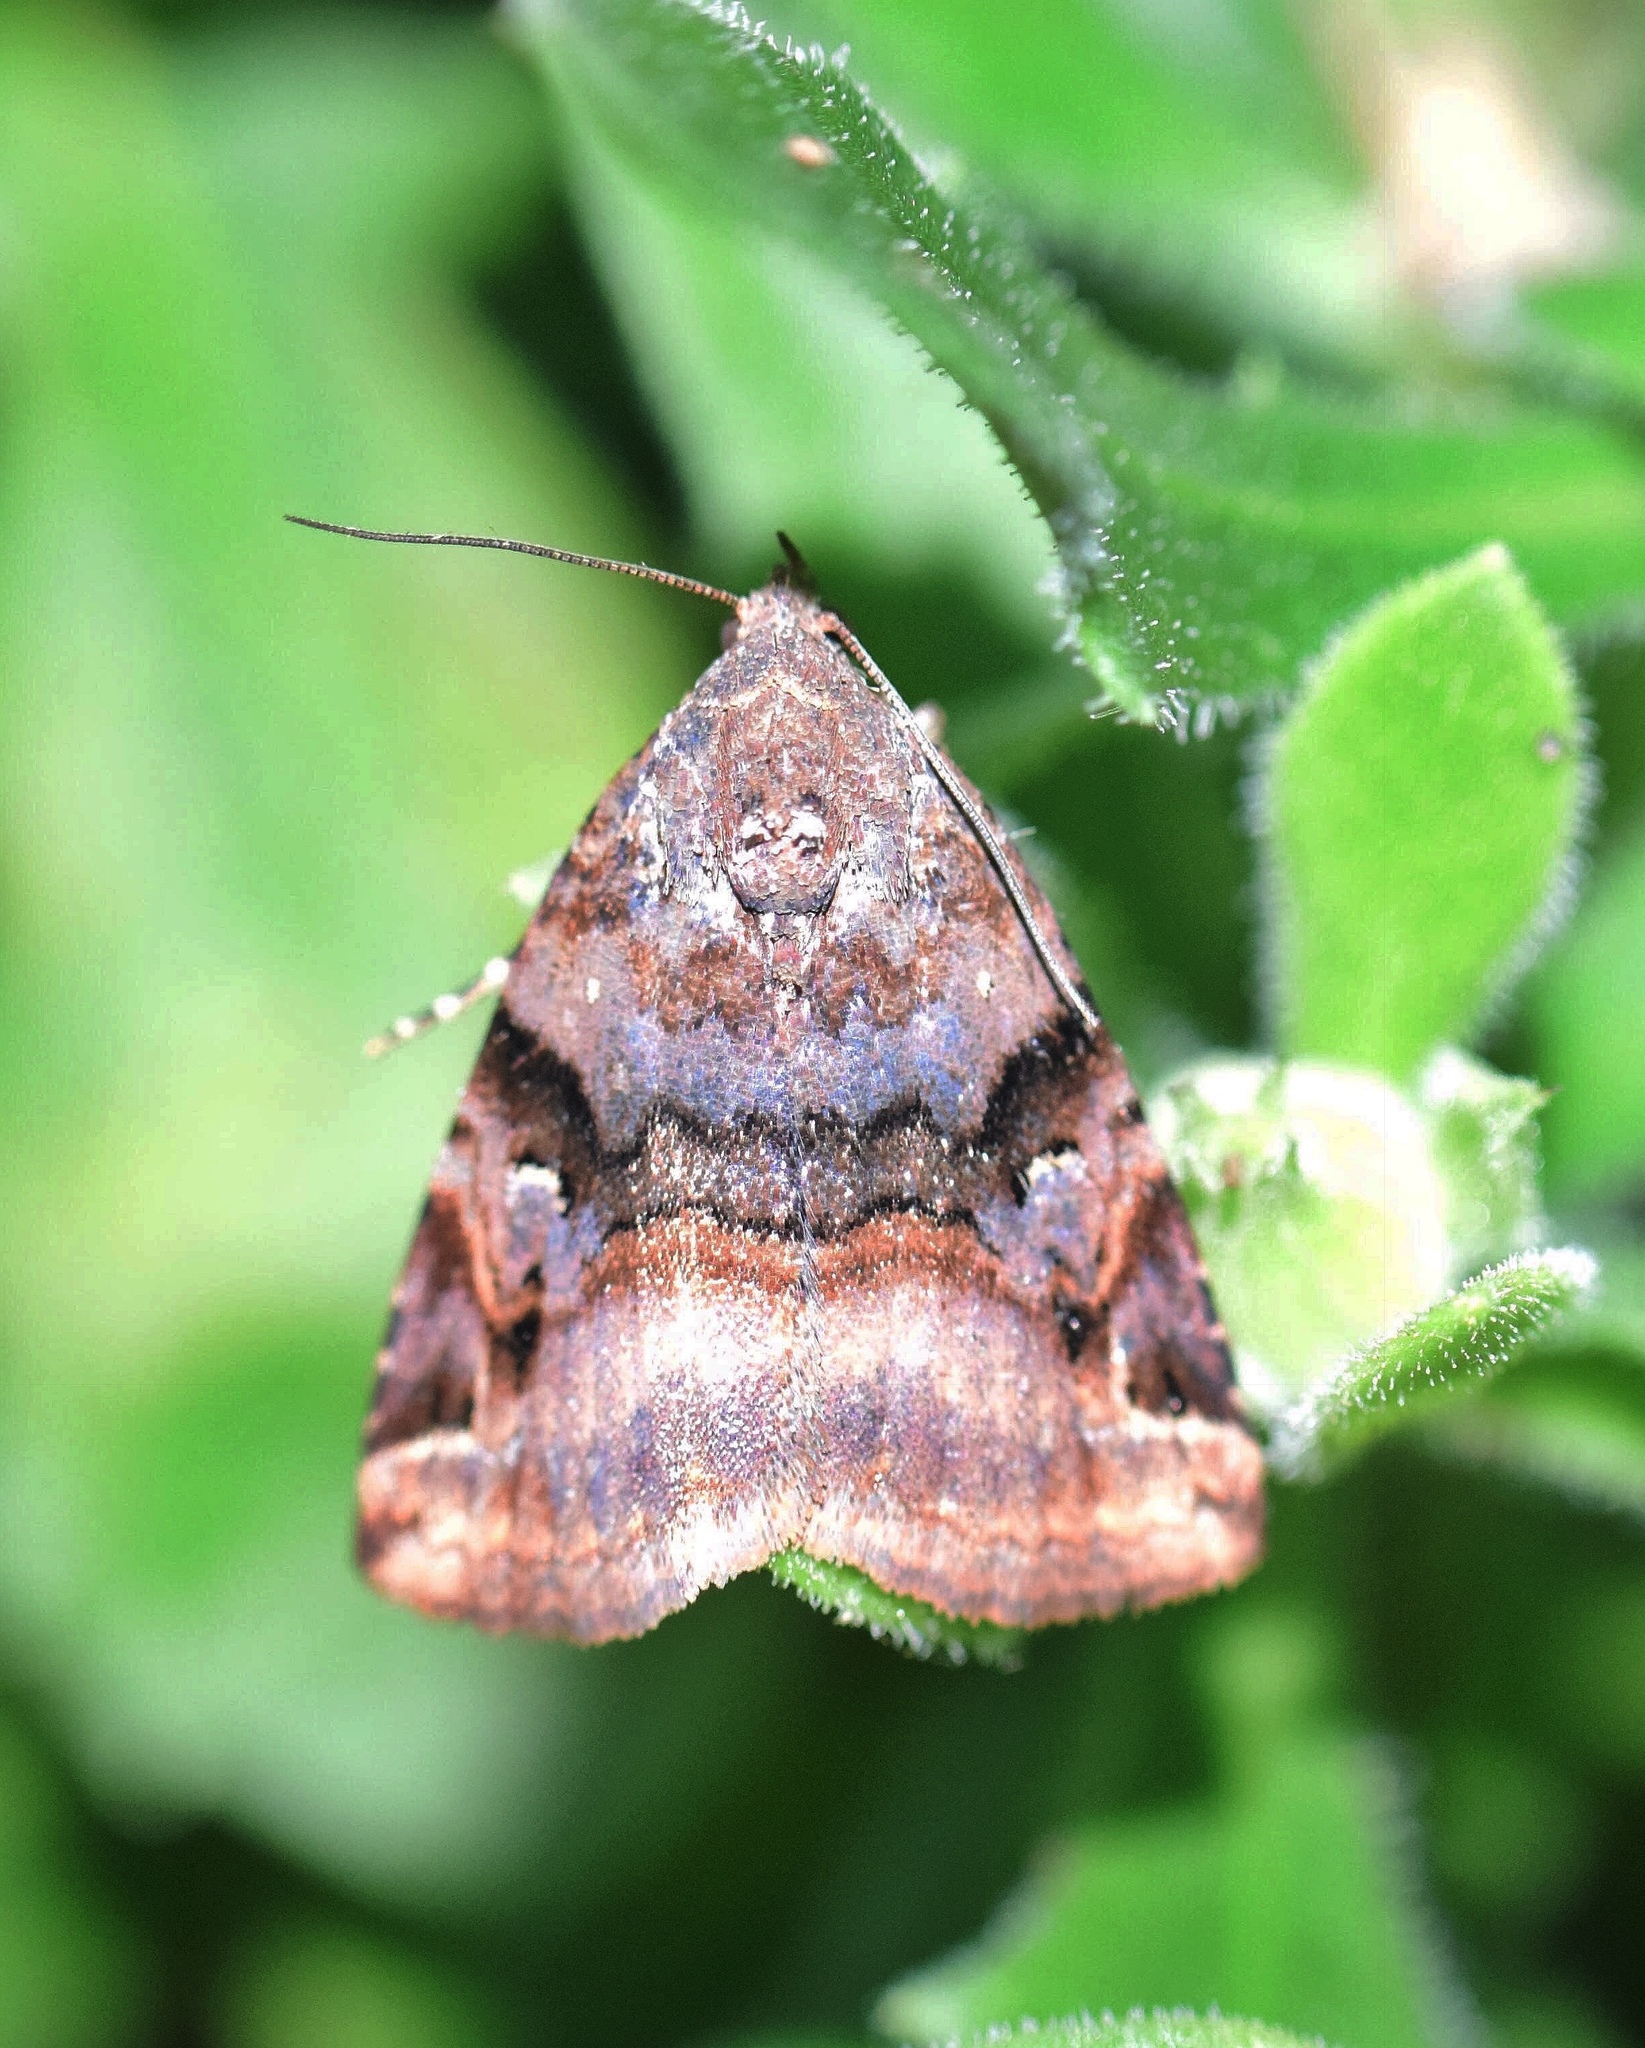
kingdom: Animalia
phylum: Arthropoda
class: Insecta
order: Lepidoptera
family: Noctuidae
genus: Ozarba
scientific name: Ozarba plagifera
